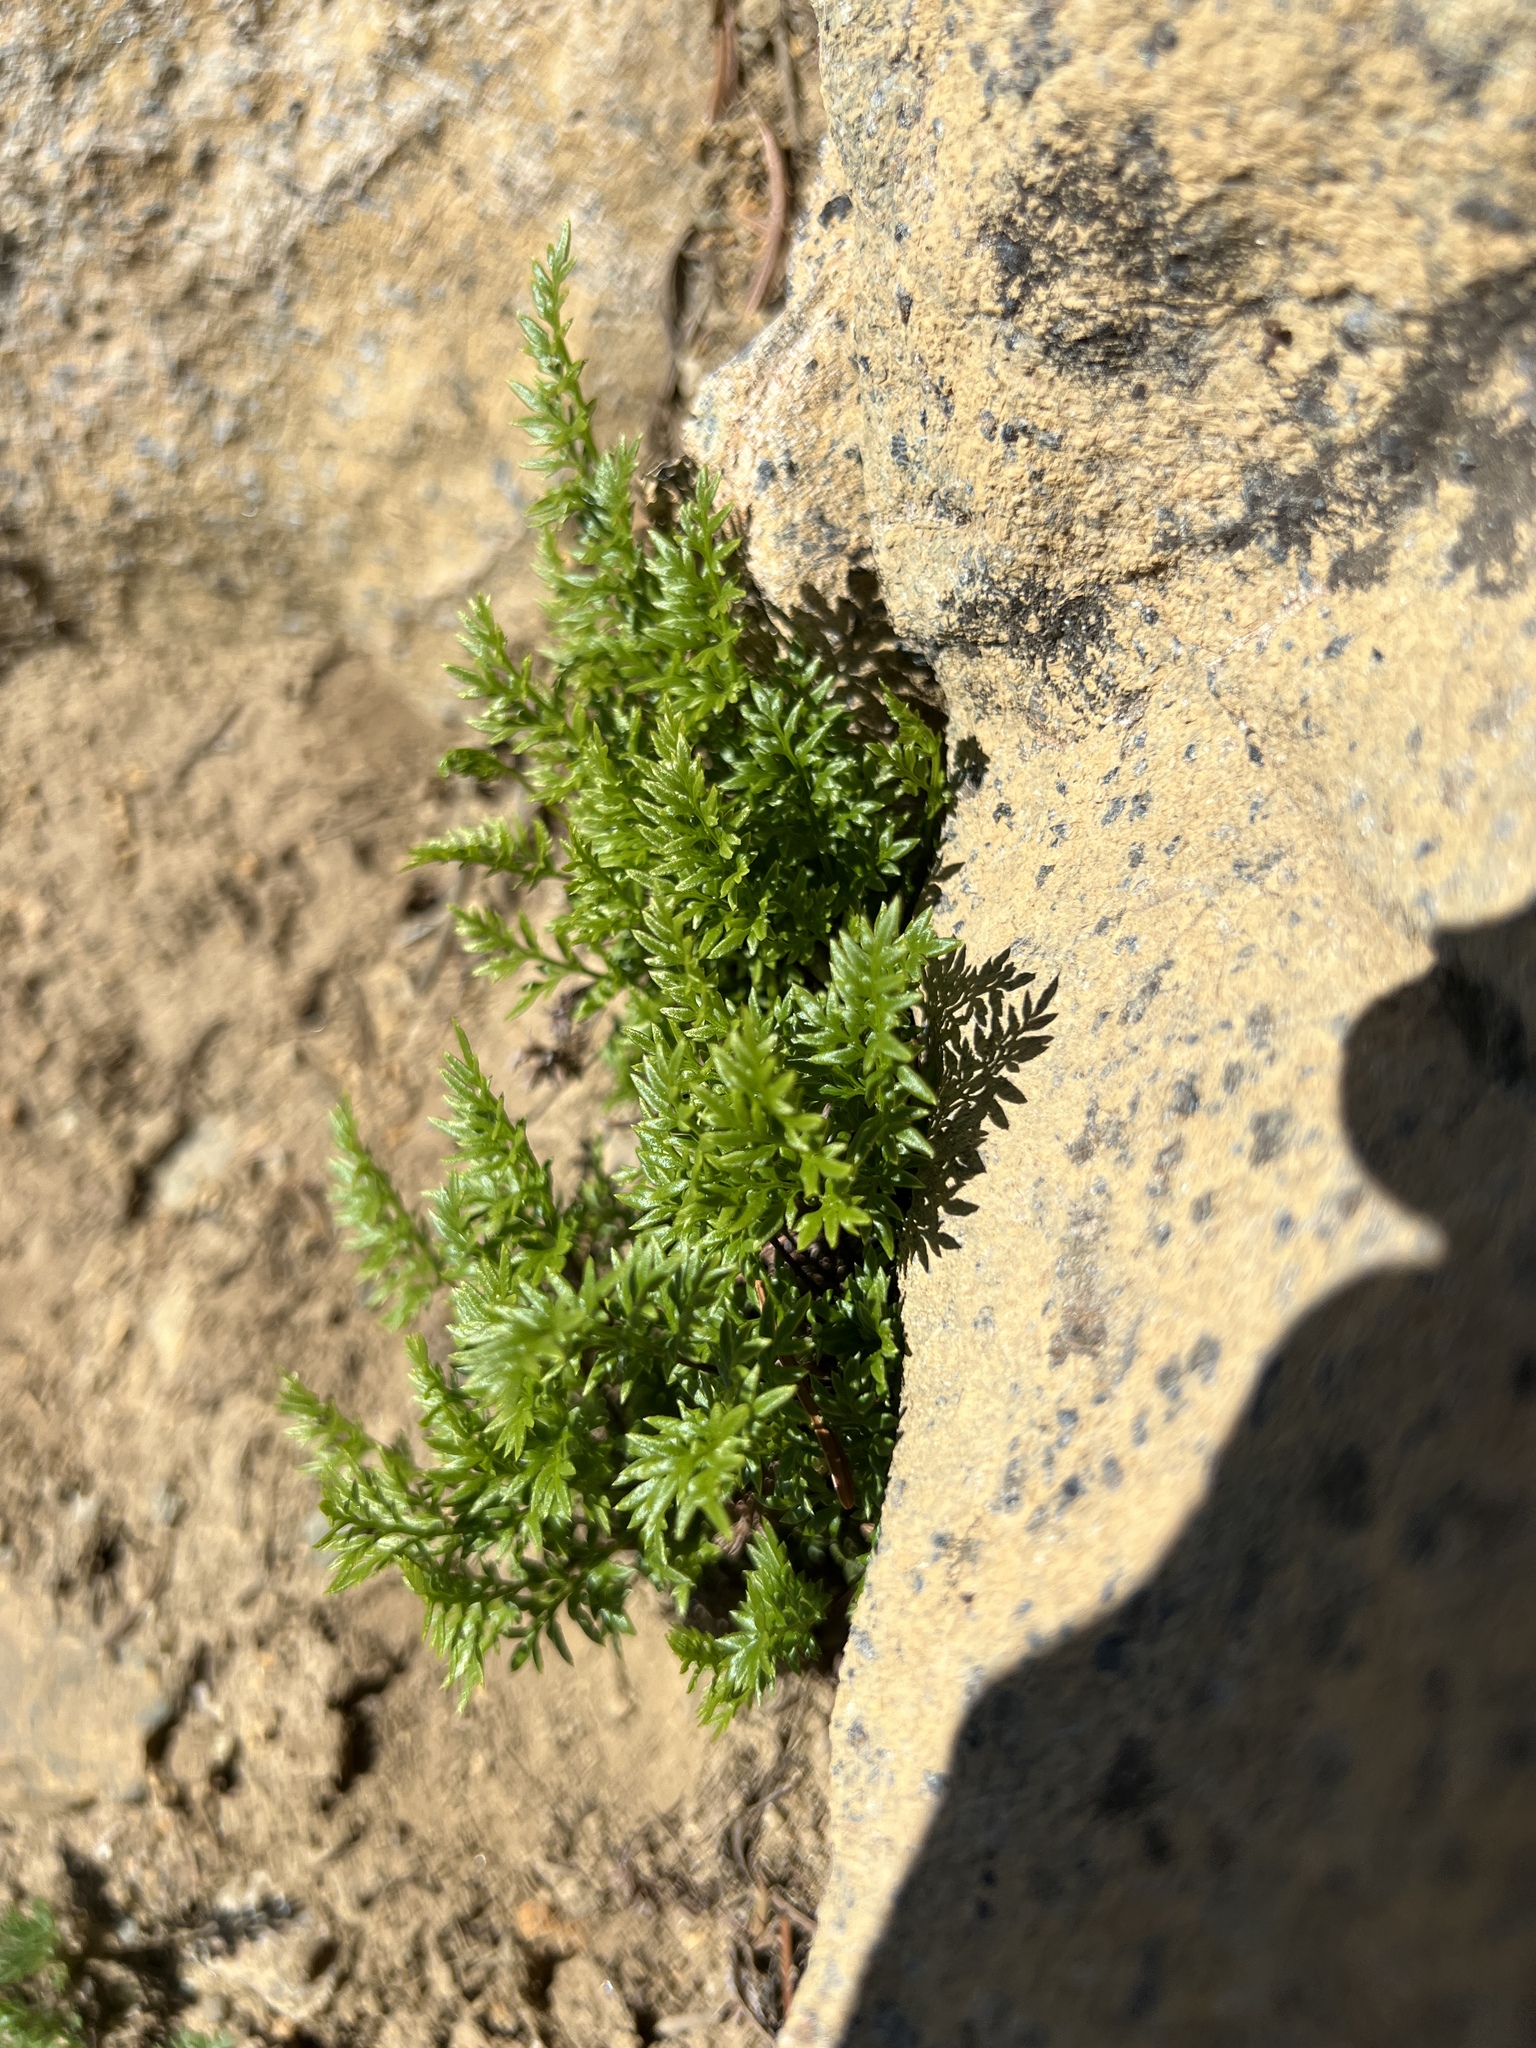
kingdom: Plantae
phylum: Tracheophyta
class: Polypodiopsida
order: Polypodiales
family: Pteridaceae
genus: Aspidotis
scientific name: Aspidotis densa
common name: Indian's dream
